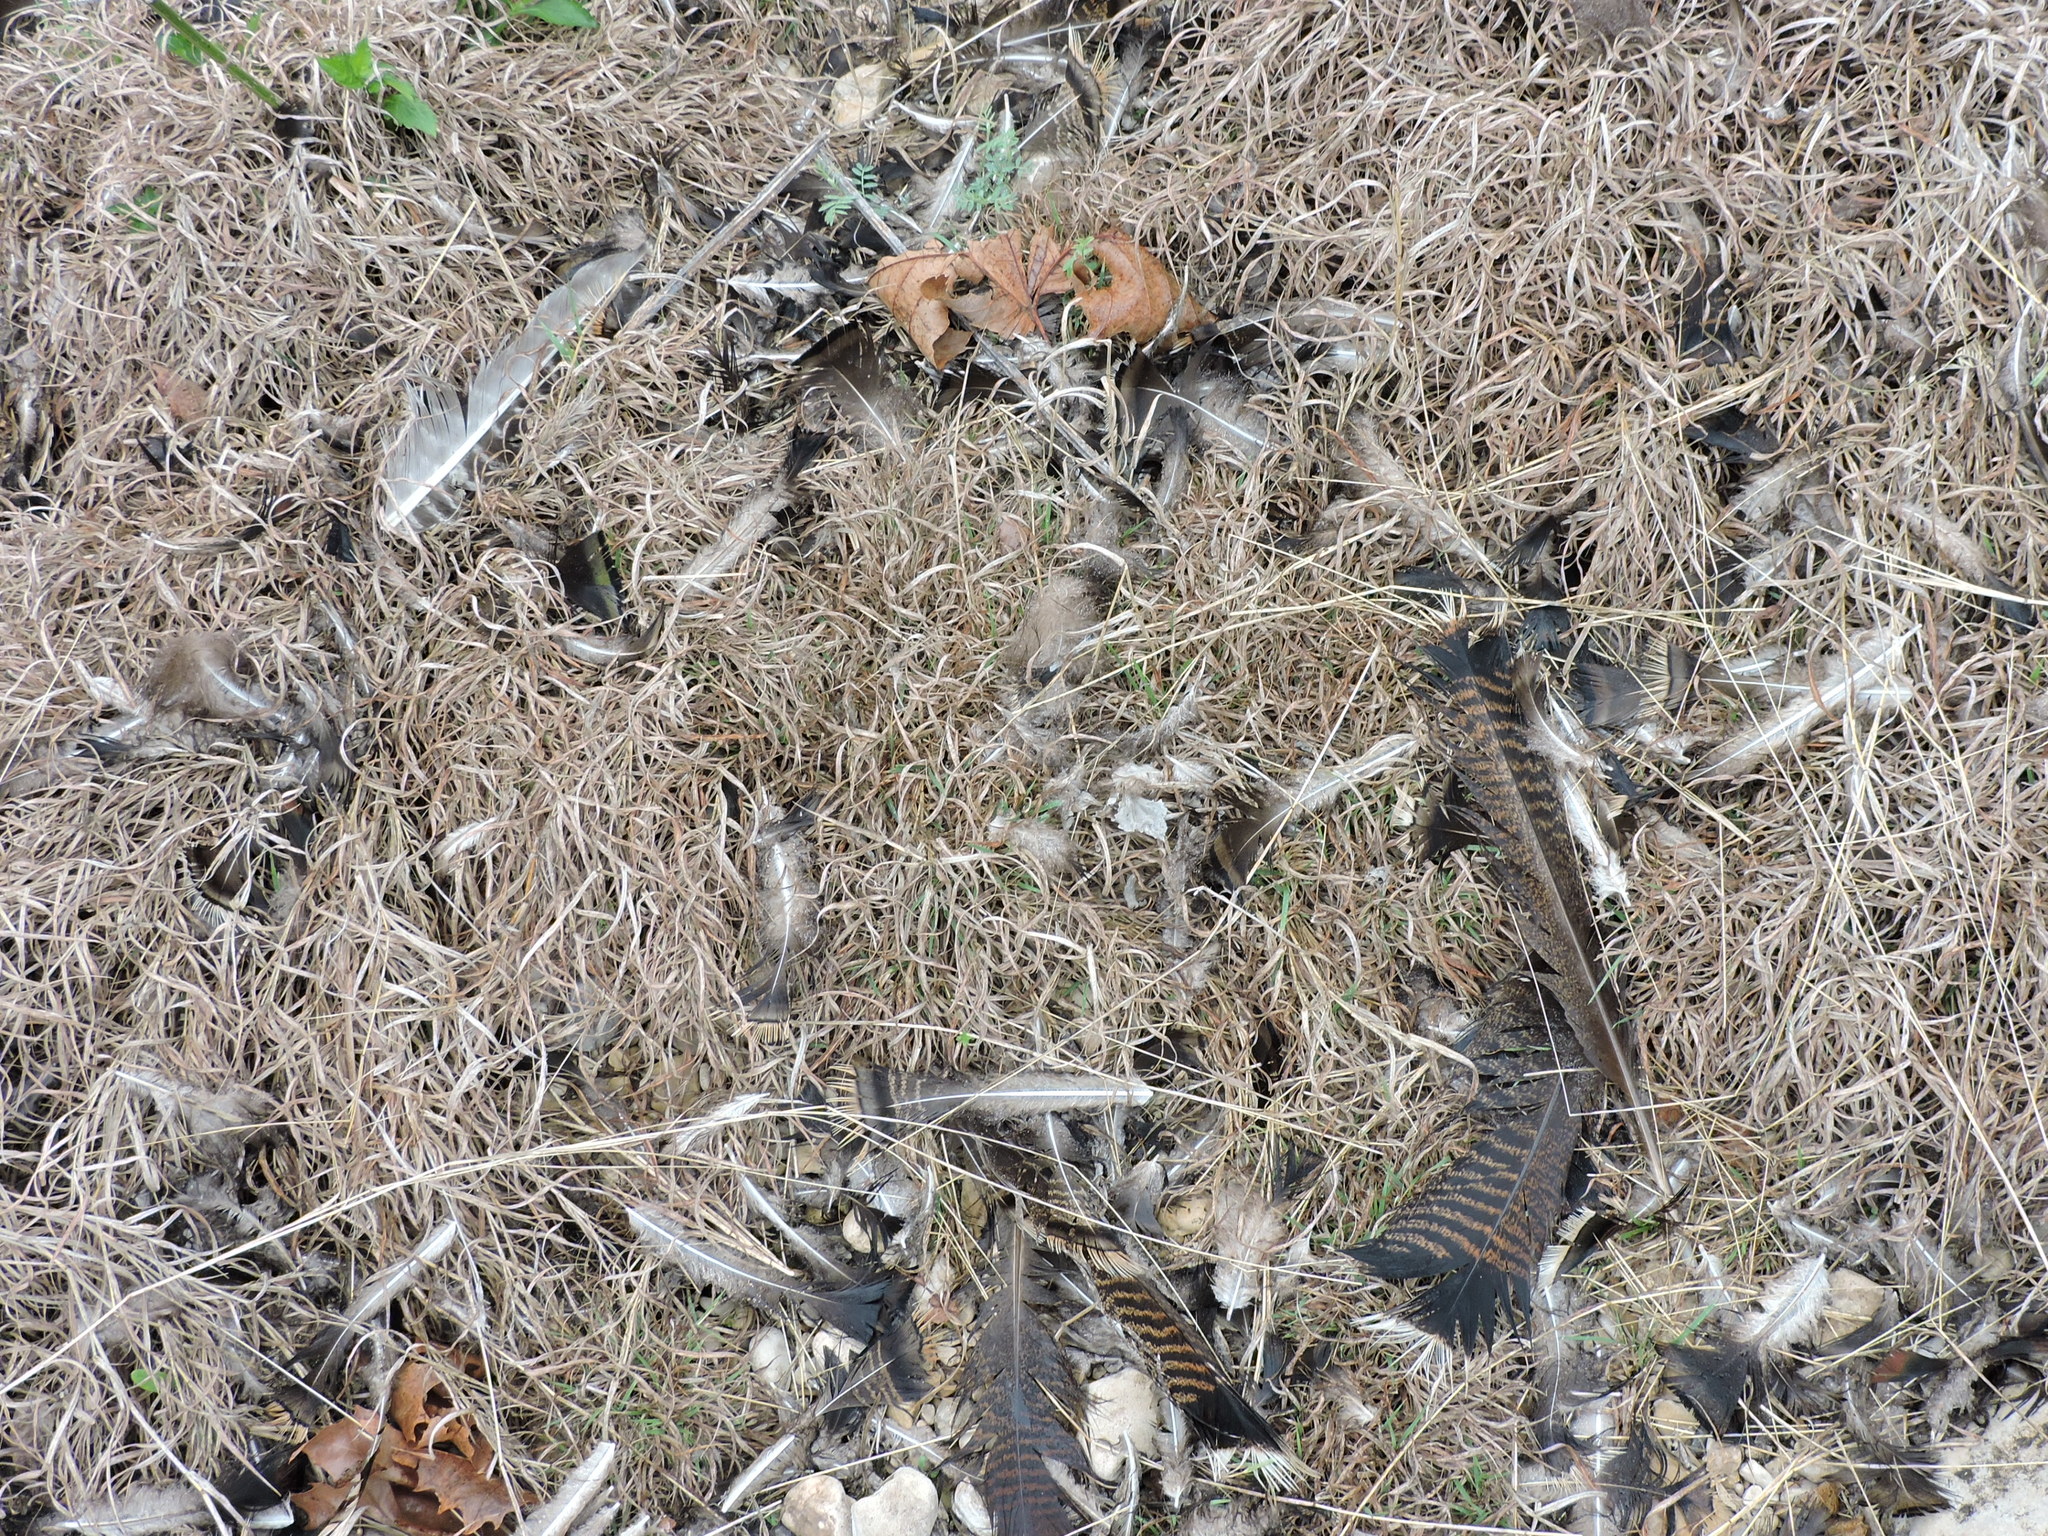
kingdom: Animalia
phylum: Chordata
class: Aves
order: Galliformes
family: Phasianidae
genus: Meleagris
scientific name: Meleagris gallopavo
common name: Wild turkey
